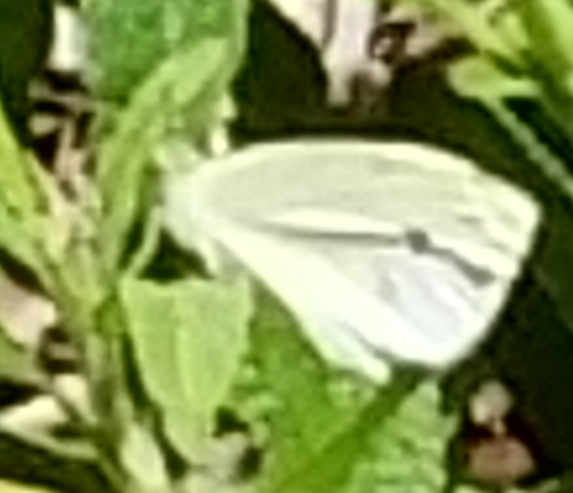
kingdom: Animalia
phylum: Arthropoda
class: Insecta
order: Lepidoptera
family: Pieridae
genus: Pieris
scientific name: Pieris rapae
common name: Small white
